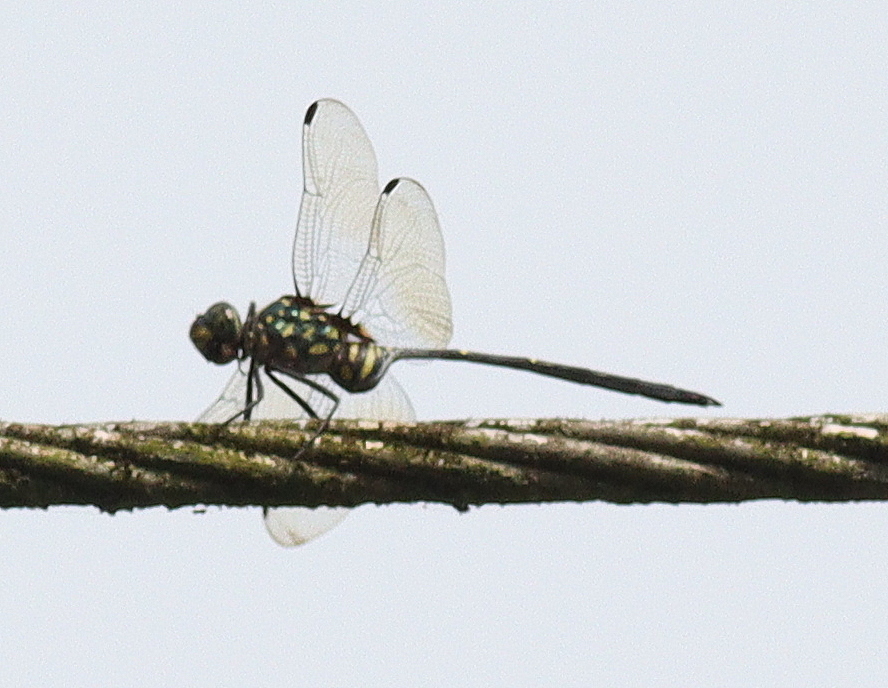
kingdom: Animalia
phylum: Arthropoda
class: Insecta
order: Odonata
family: Libellulidae
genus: Olpogastra
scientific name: Olpogastra lugubris
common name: Bottletail
